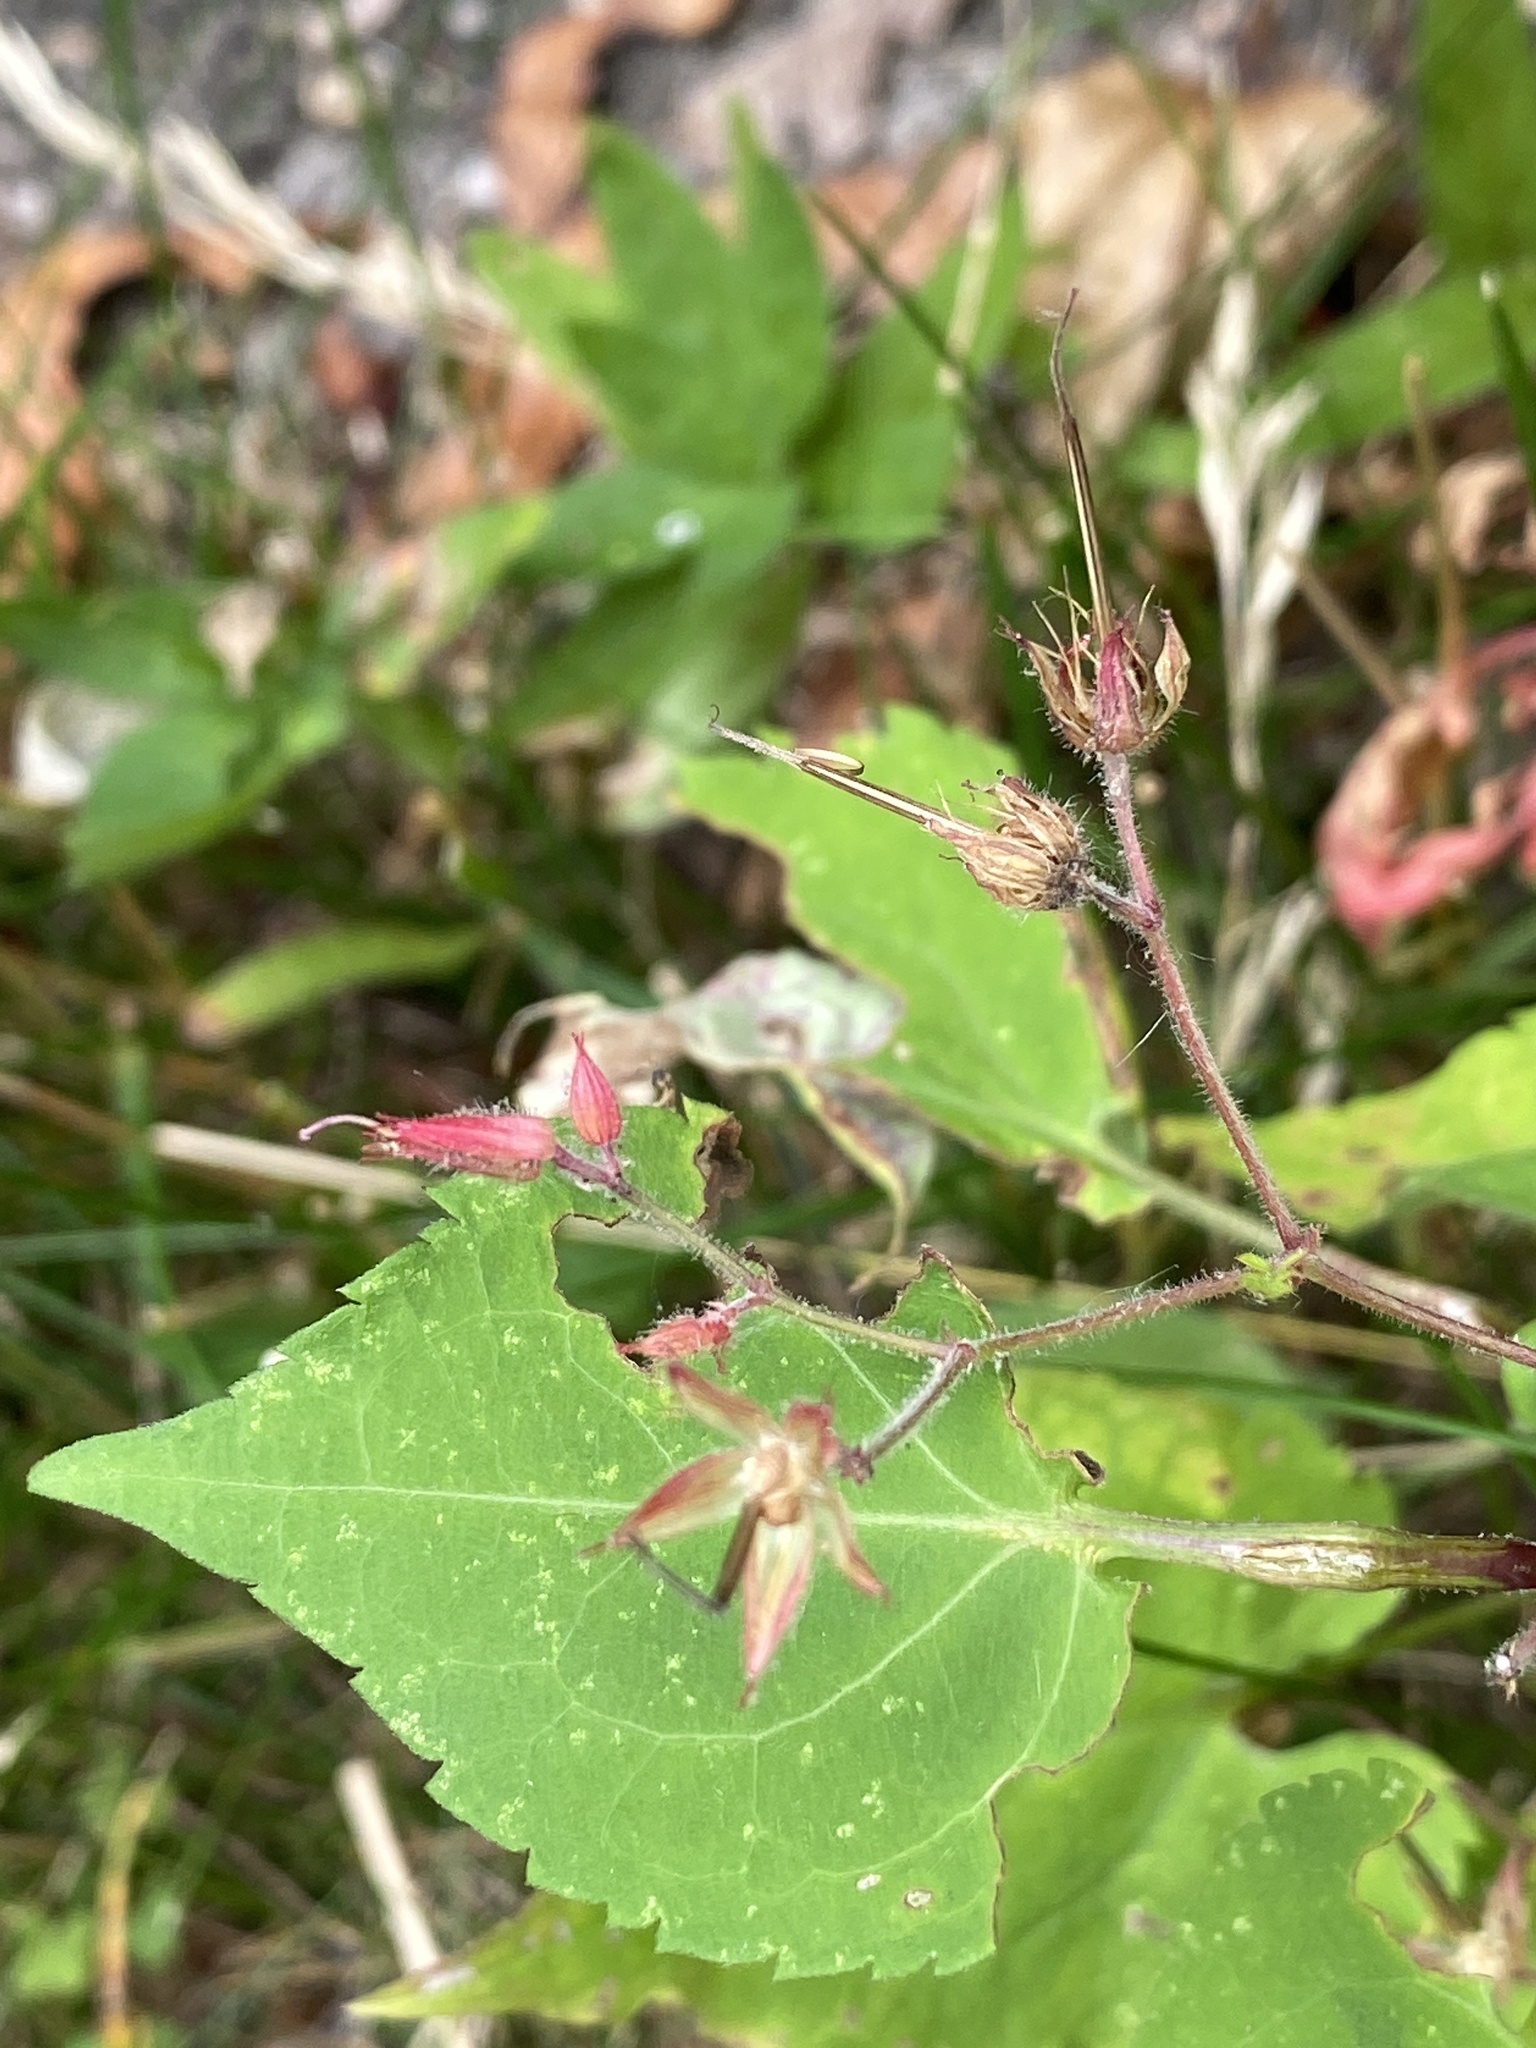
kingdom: Plantae
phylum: Tracheophyta
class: Magnoliopsida
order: Geraniales
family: Geraniaceae
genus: Geranium
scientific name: Geranium robertianum
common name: Herb-robert
